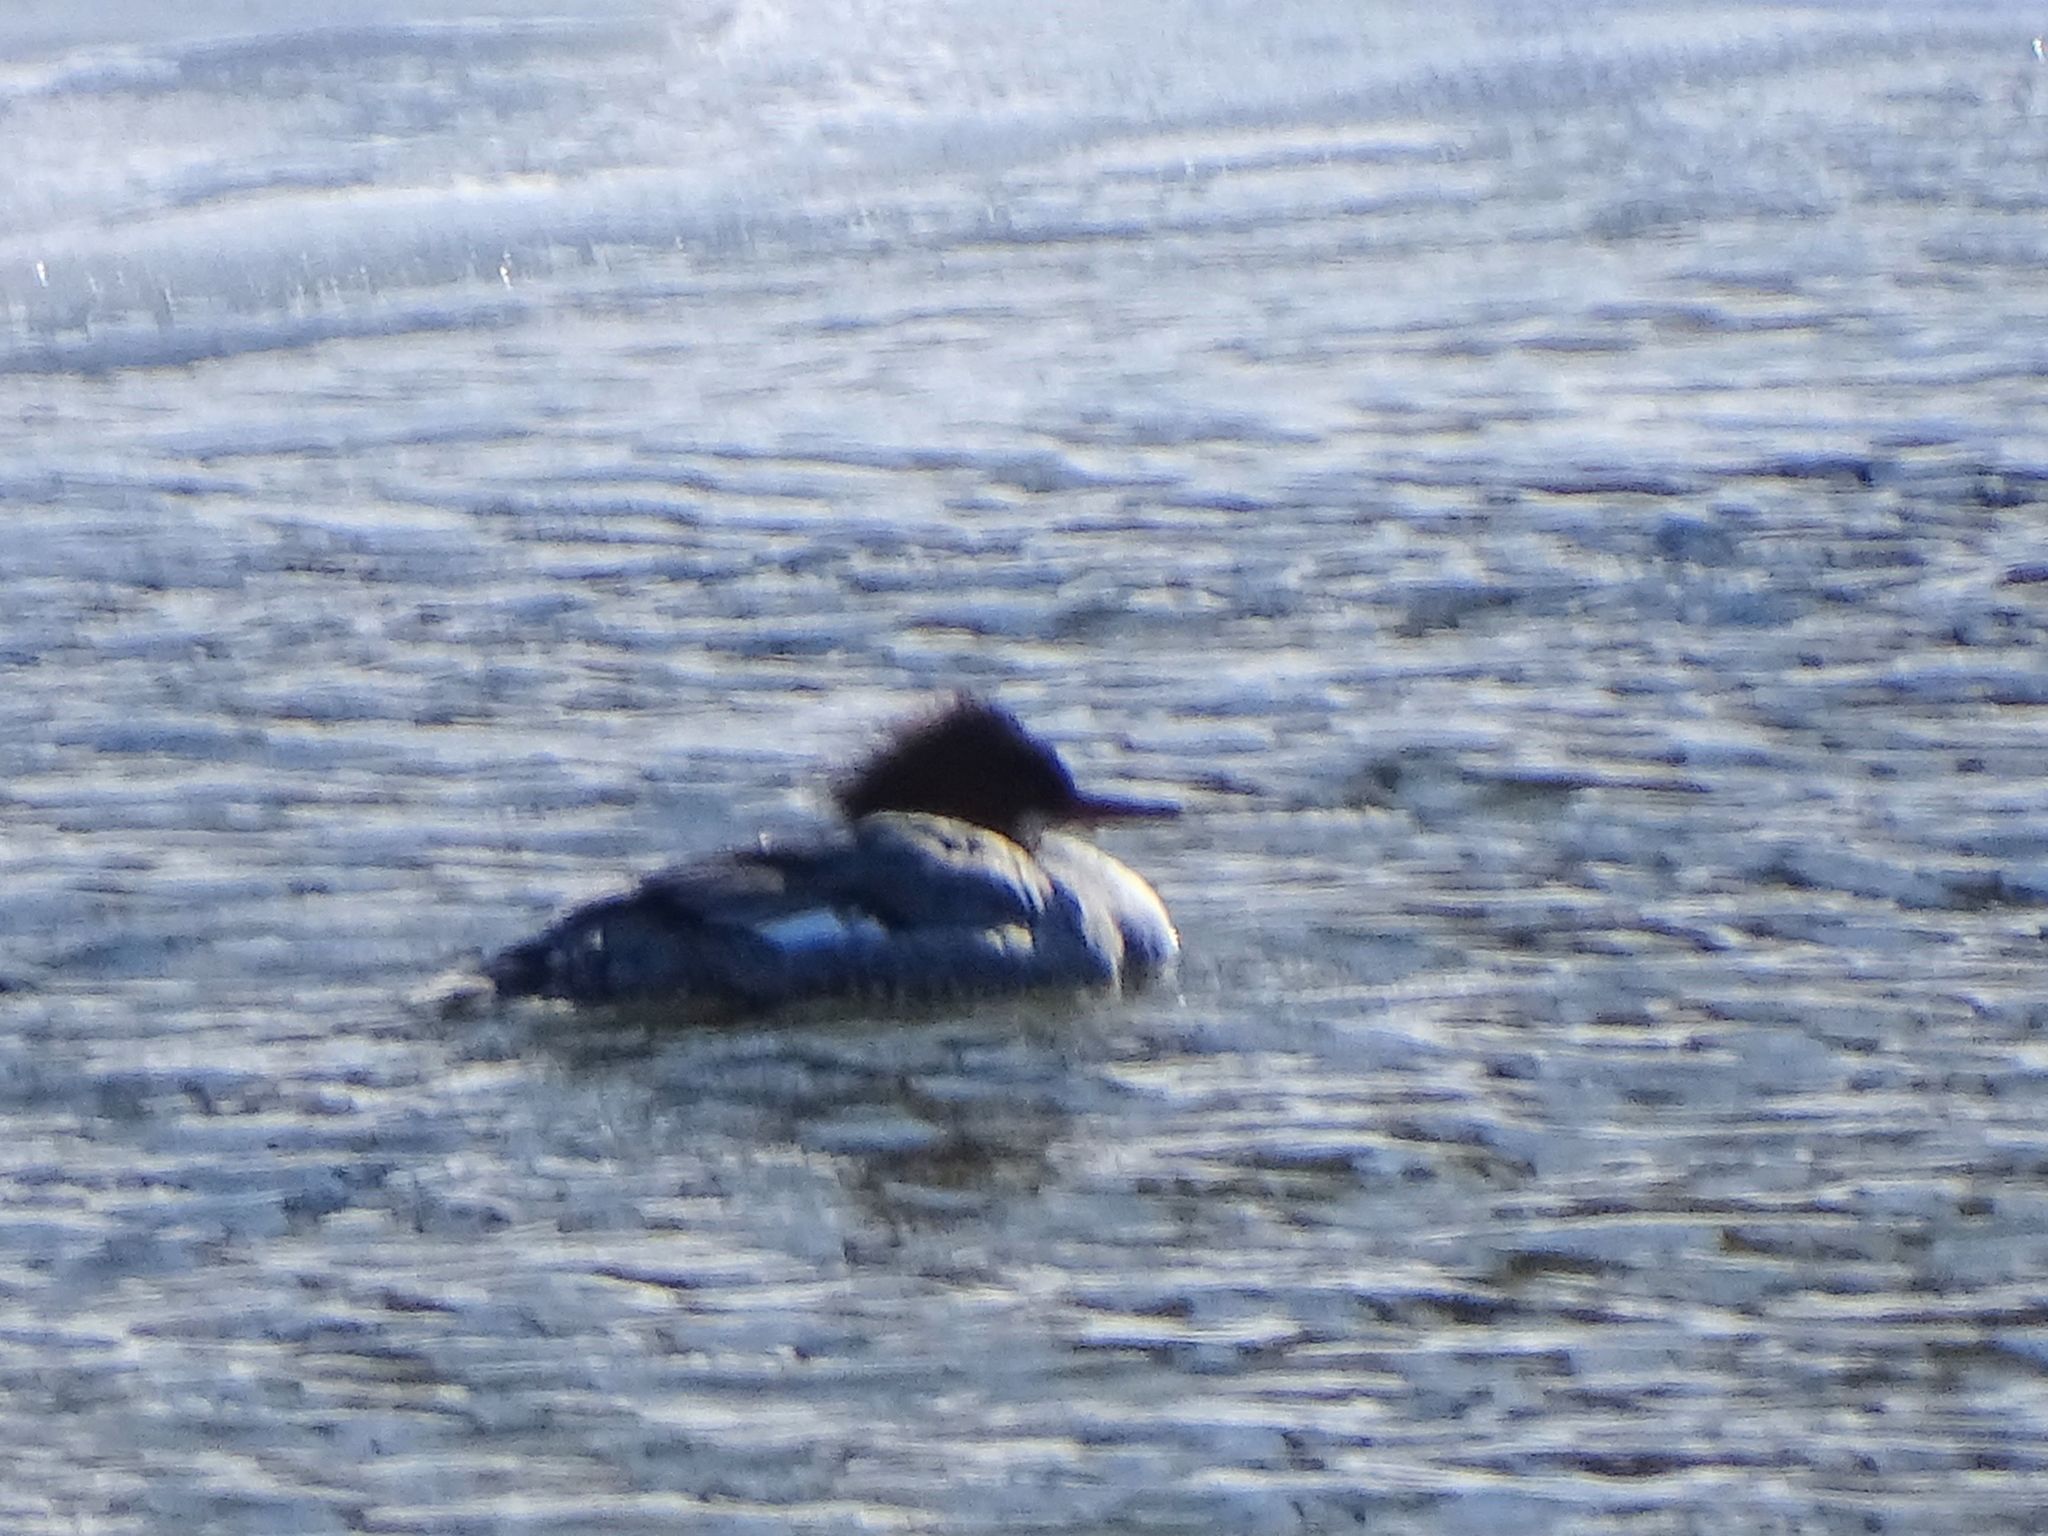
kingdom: Animalia
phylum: Chordata
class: Aves
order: Anseriformes
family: Anatidae
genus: Mergus
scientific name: Mergus merganser
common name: Common merganser
